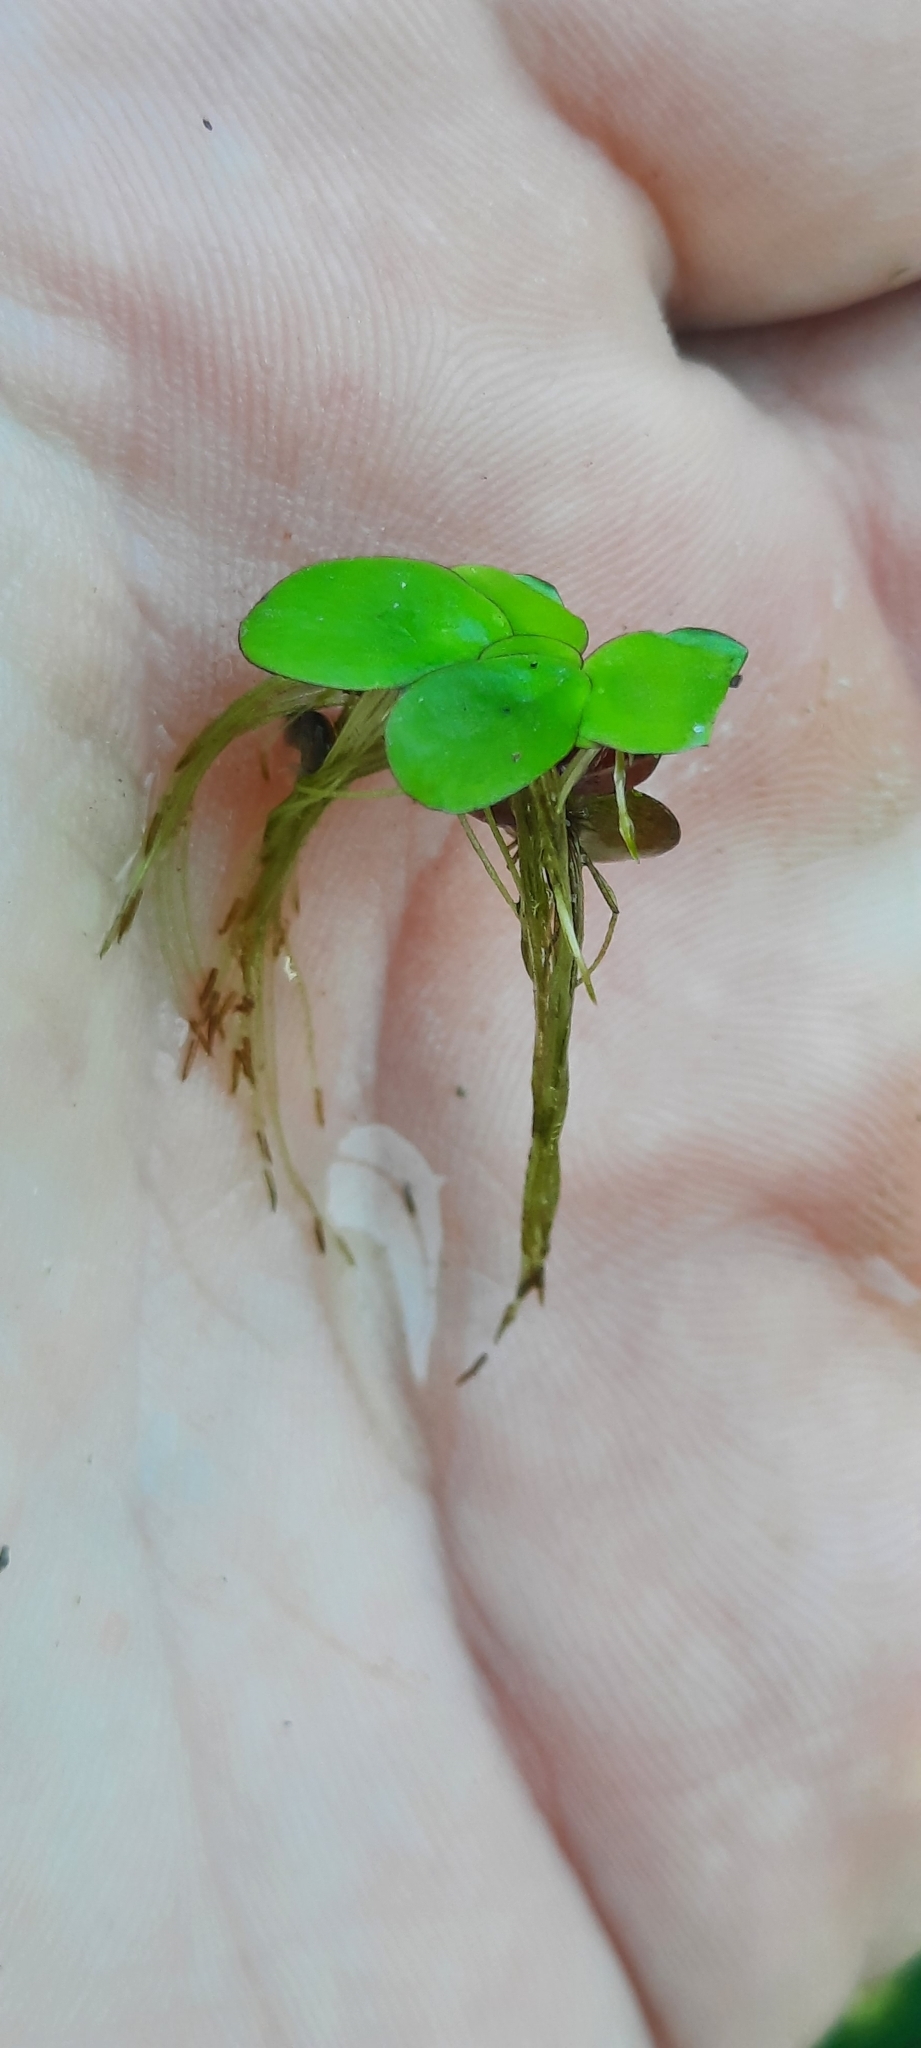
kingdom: Plantae
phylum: Tracheophyta
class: Liliopsida
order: Alismatales
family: Araceae
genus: Spirodela
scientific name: Spirodela polyrhiza
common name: Great duckweed
